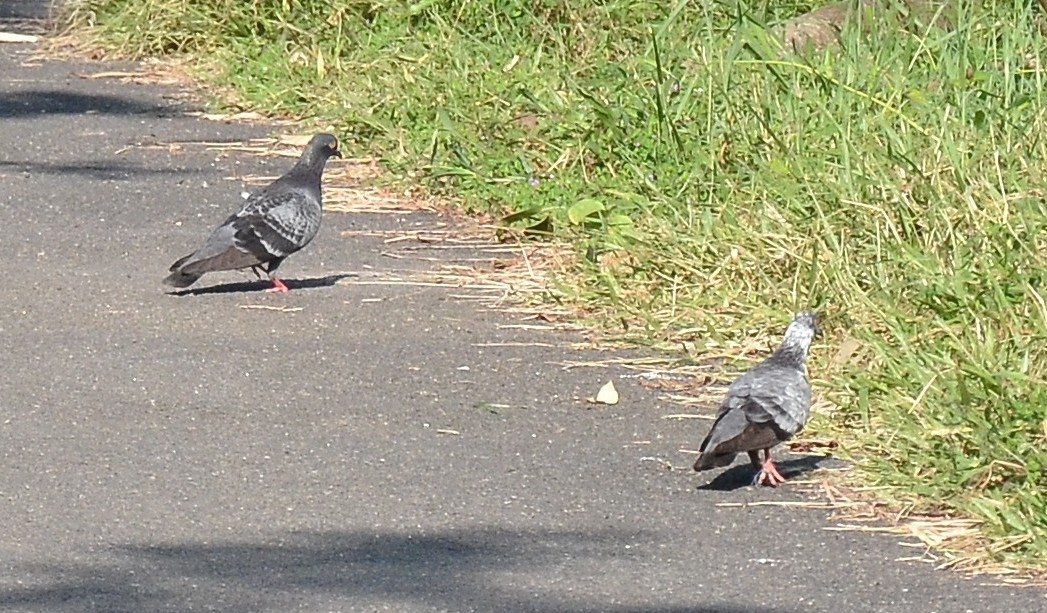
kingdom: Animalia
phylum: Chordata
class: Aves
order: Columbiformes
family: Columbidae
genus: Columba
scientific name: Columba livia
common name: Rock pigeon
